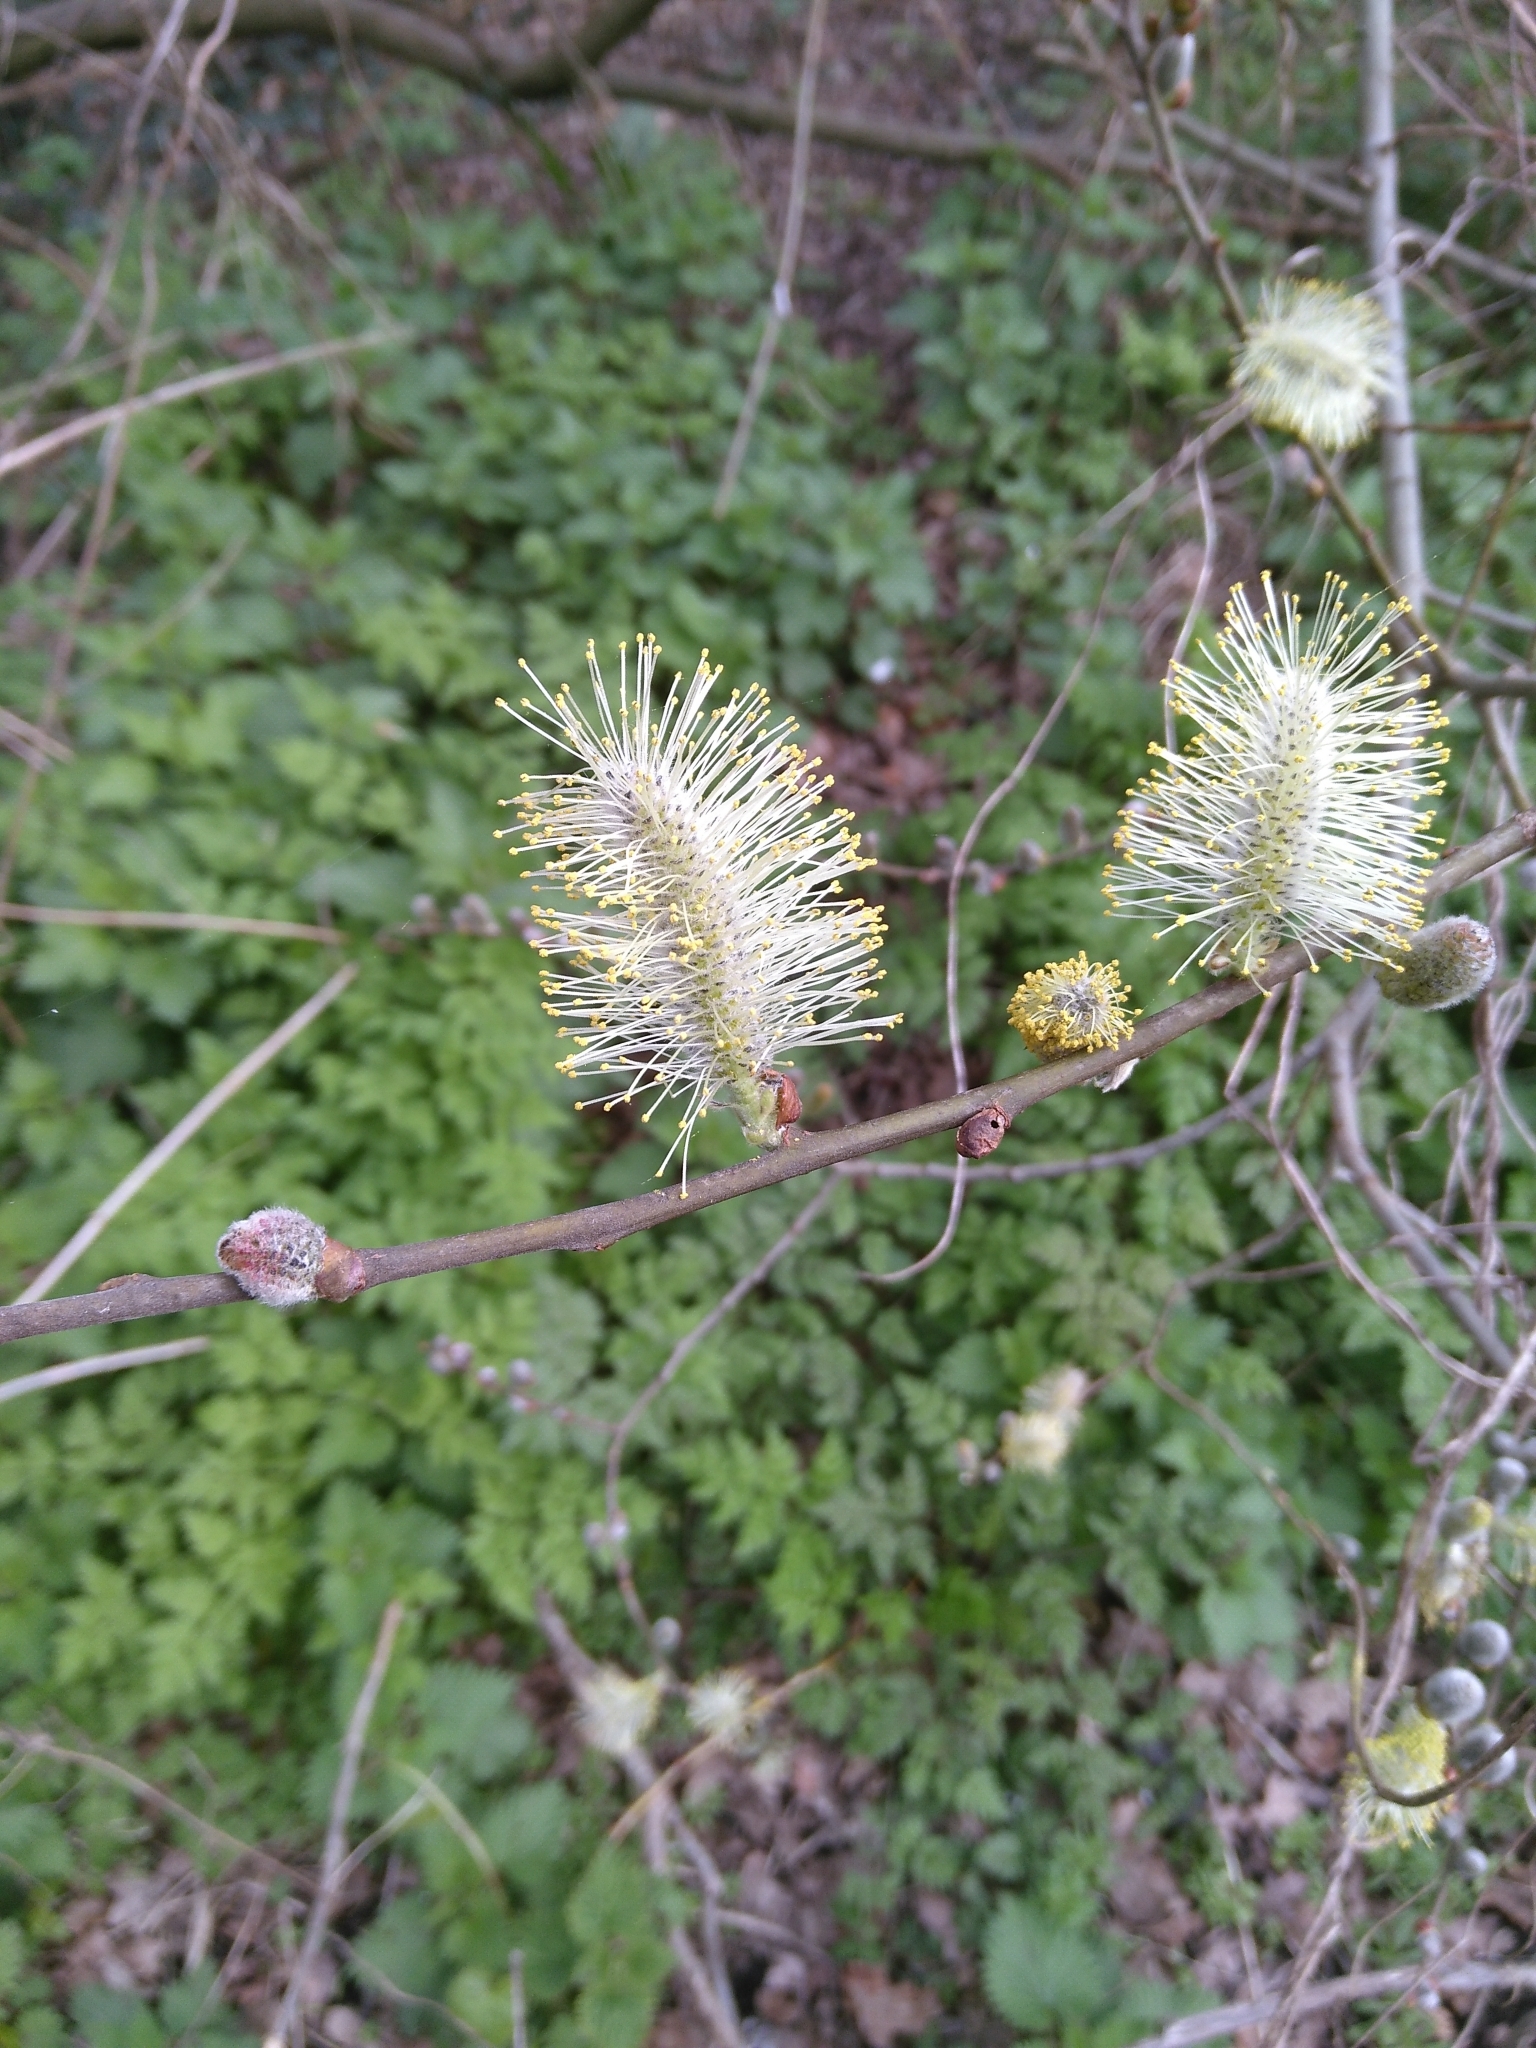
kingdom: Plantae
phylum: Tracheophyta
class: Magnoliopsida
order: Malpighiales
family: Salicaceae
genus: Salix
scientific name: Salix caprea
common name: Goat willow
